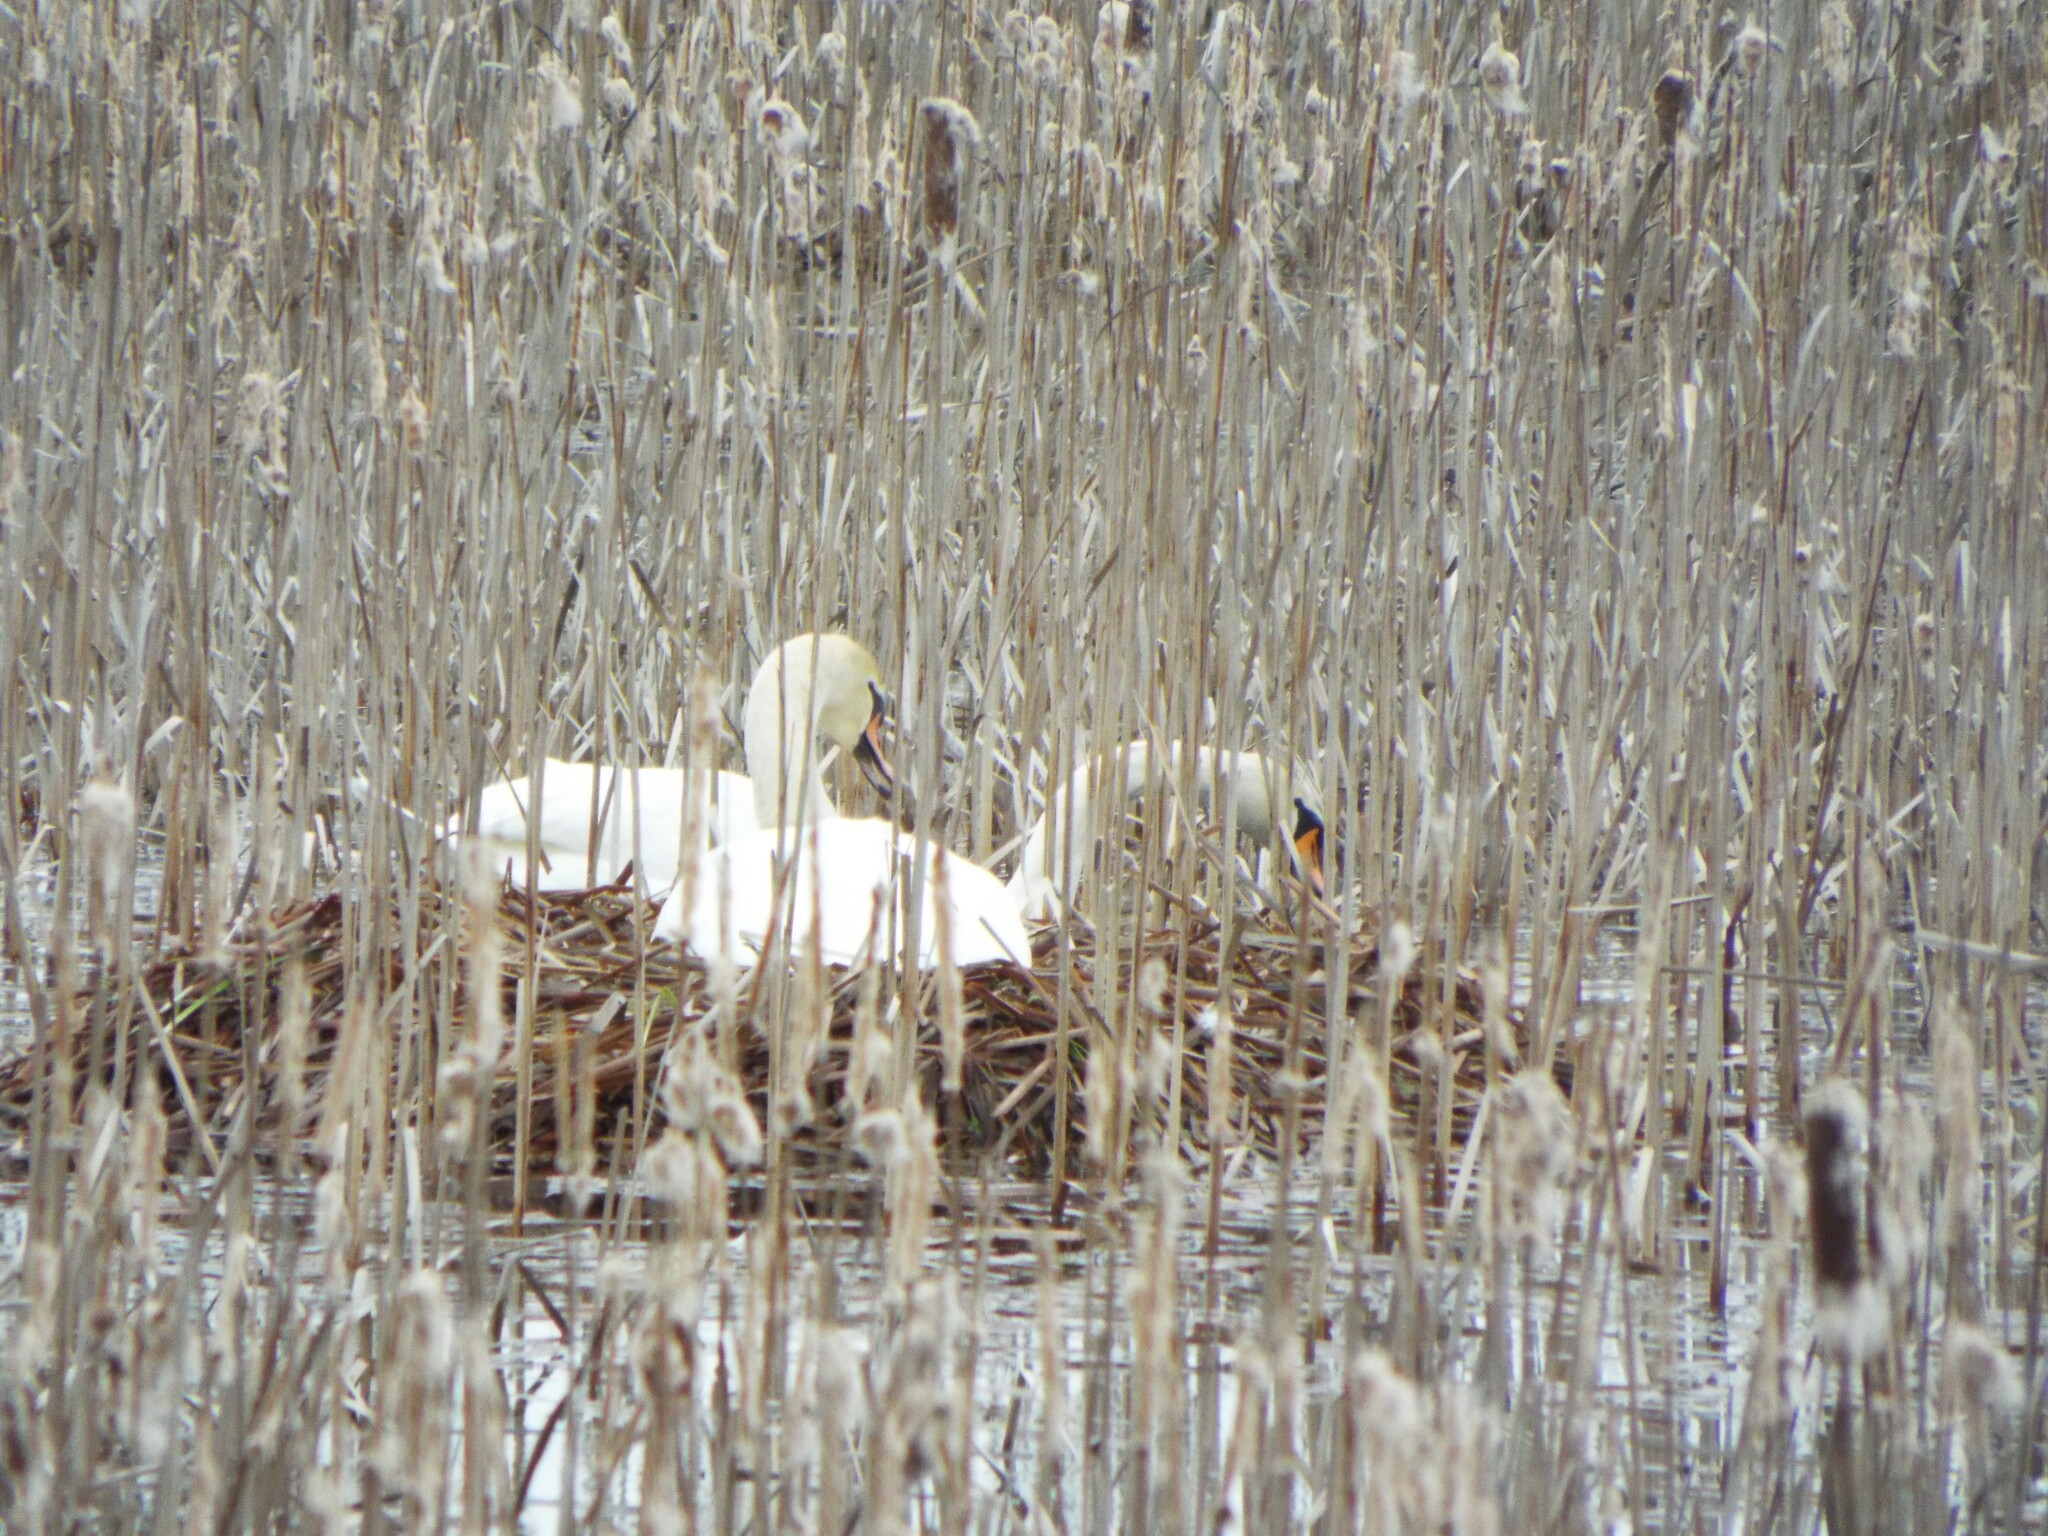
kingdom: Animalia
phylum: Chordata
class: Aves
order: Anseriformes
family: Anatidae
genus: Cygnus
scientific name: Cygnus olor
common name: Mute swan
